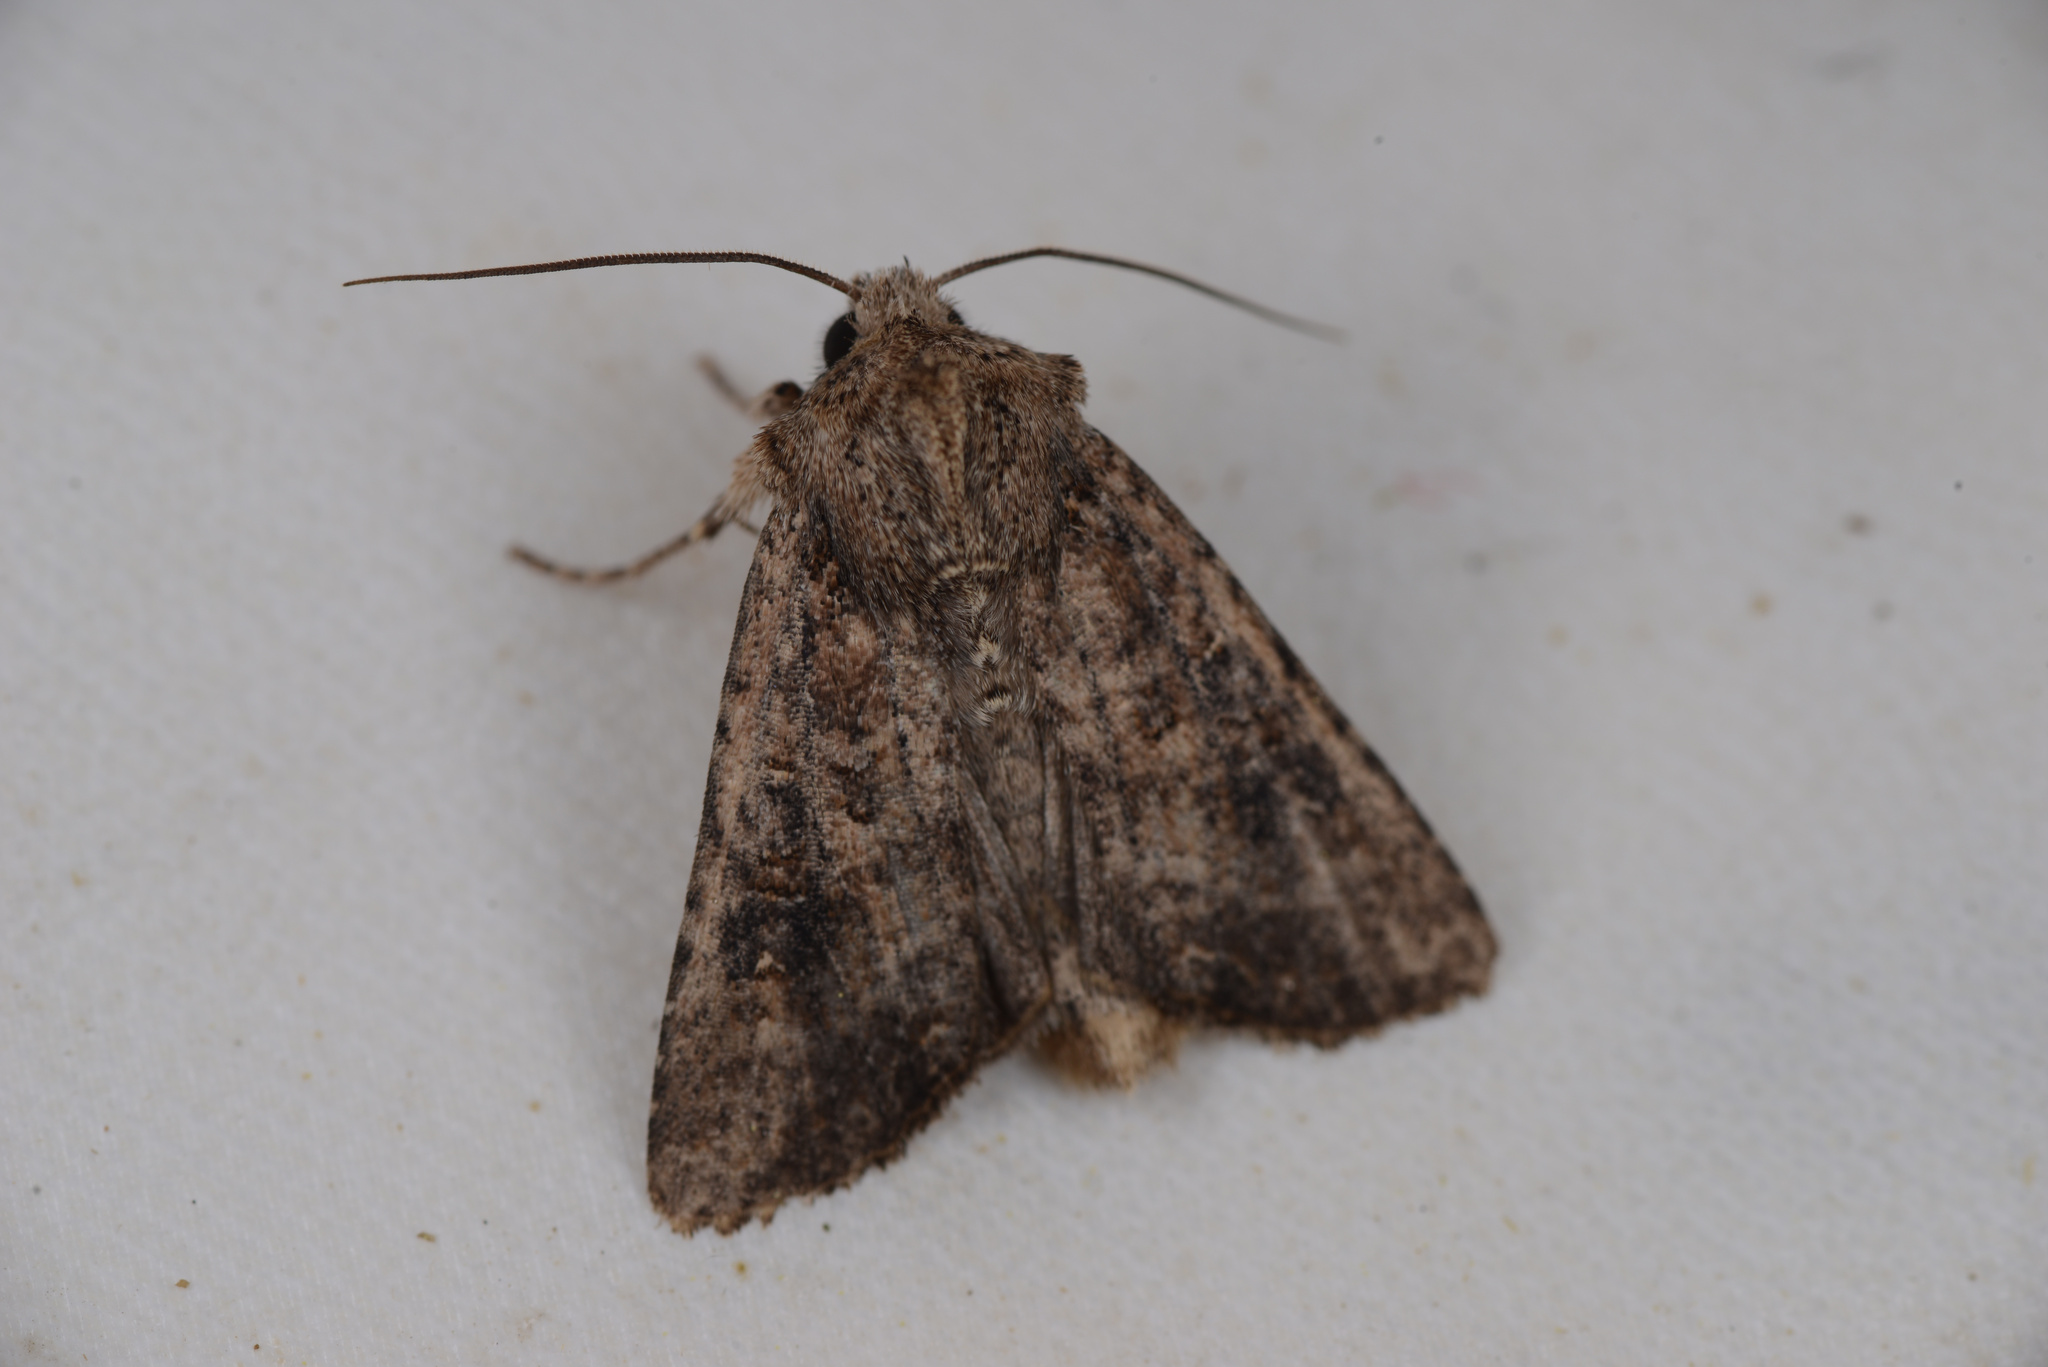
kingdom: Animalia
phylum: Arthropoda
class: Insecta
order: Lepidoptera
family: Noctuidae
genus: Ichneutica
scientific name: Ichneutica morosa
